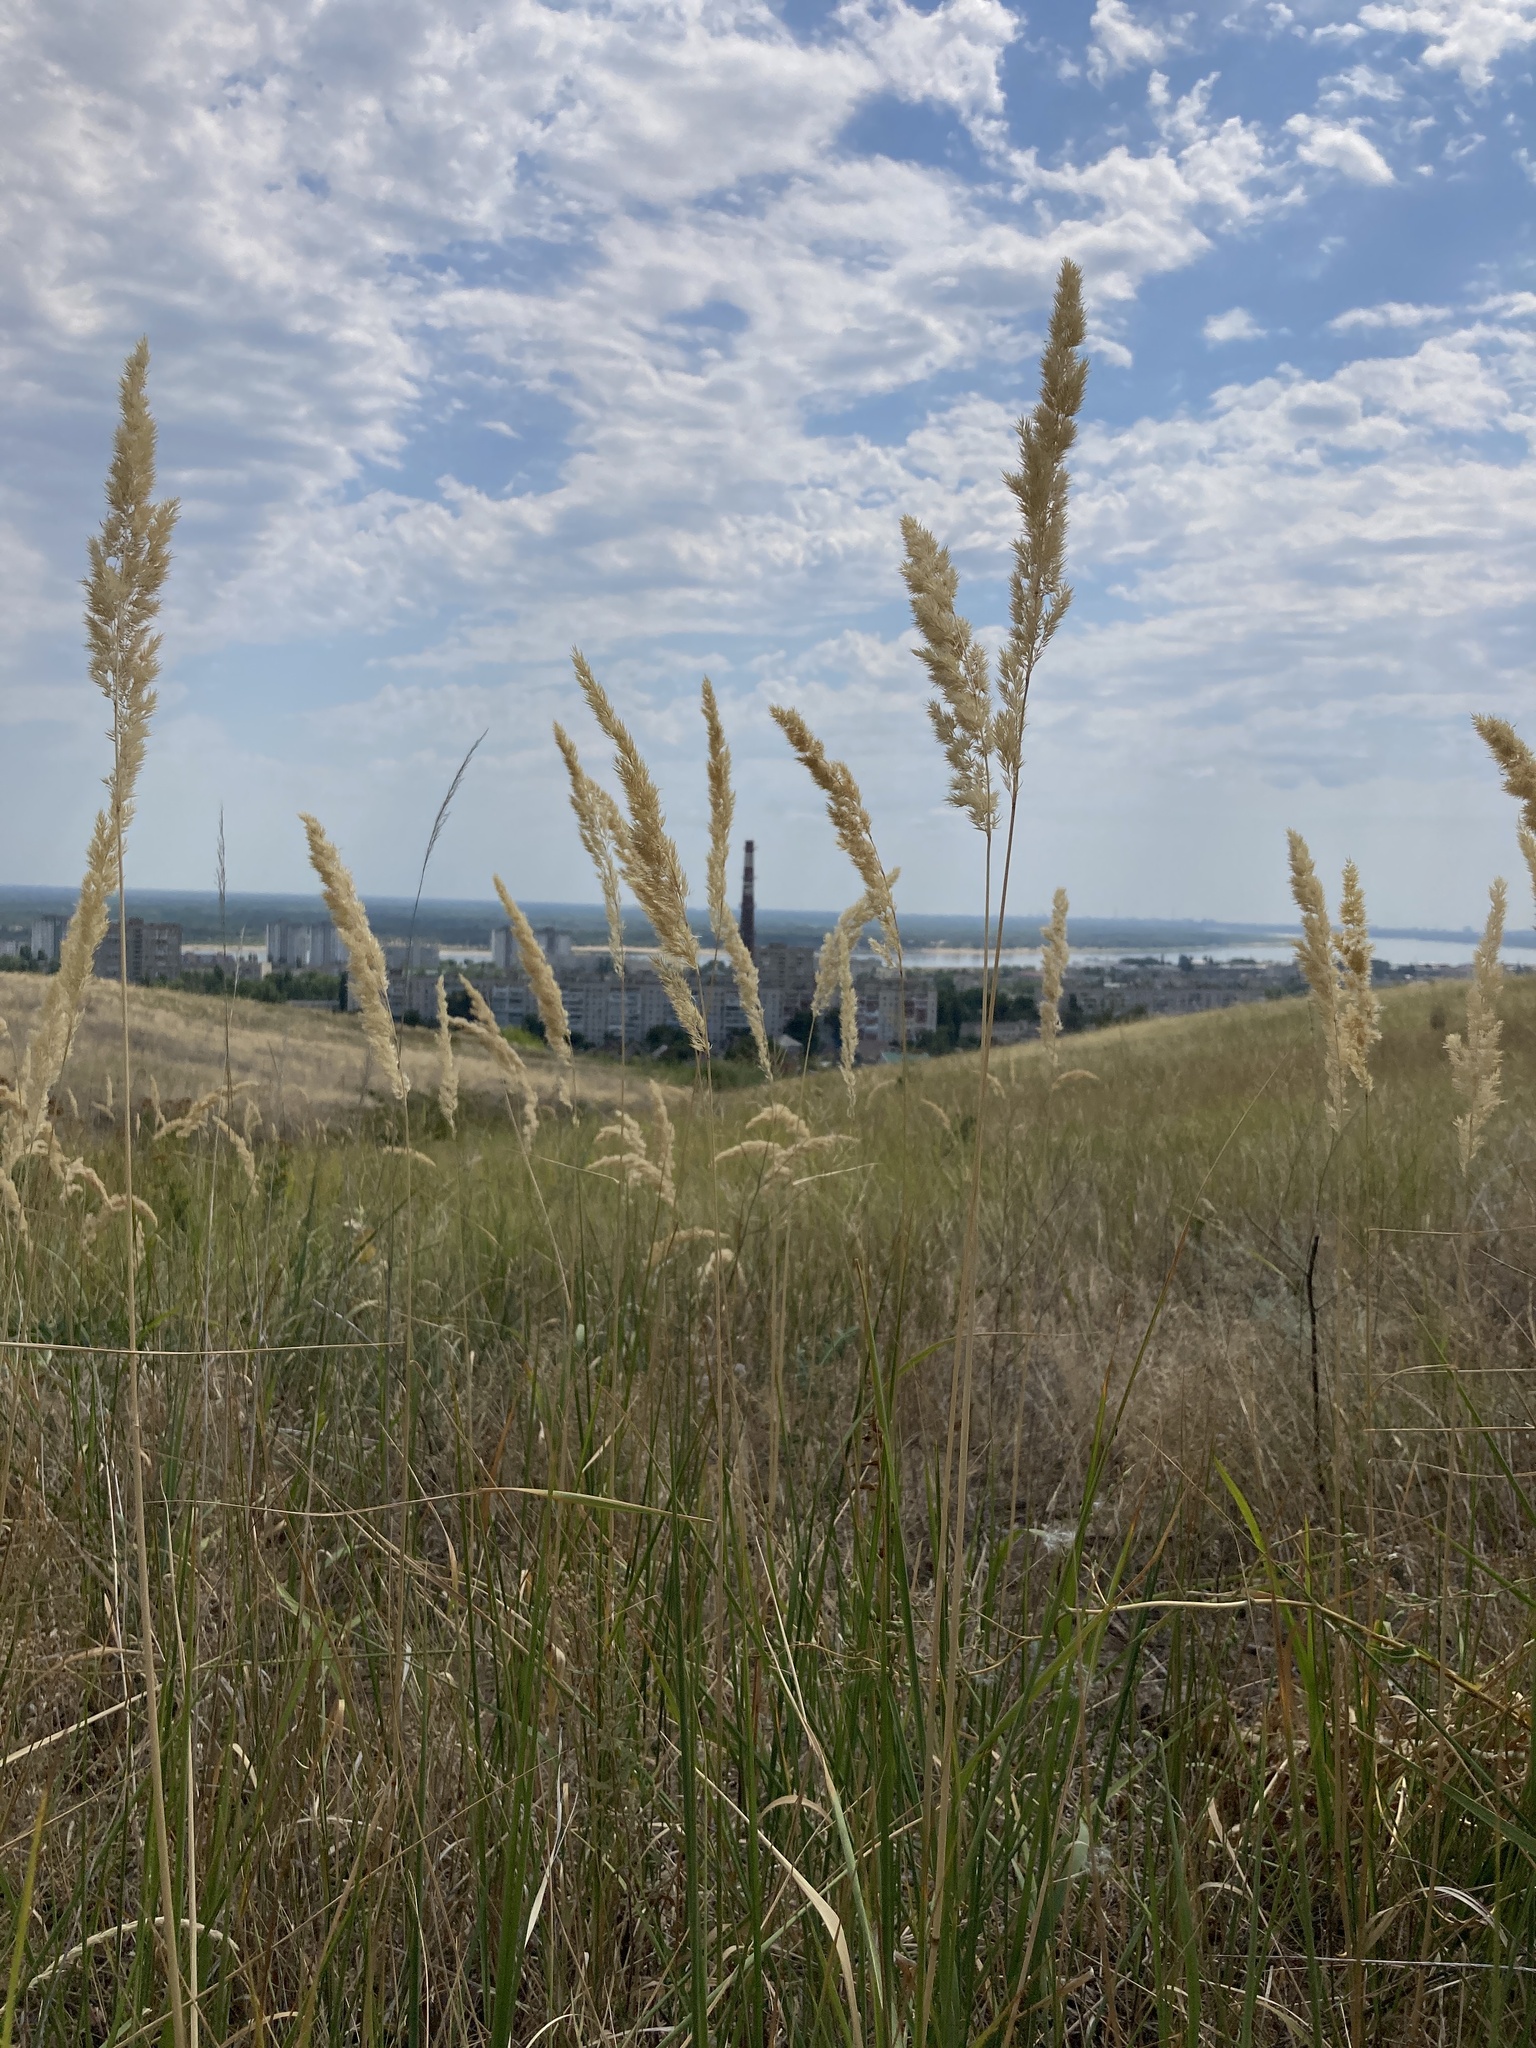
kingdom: Plantae
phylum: Tracheophyta
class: Liliopsida
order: Poales
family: Poaceae
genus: Calamagrostis
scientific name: Calamagrostis epigejos
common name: Wood small-reed
